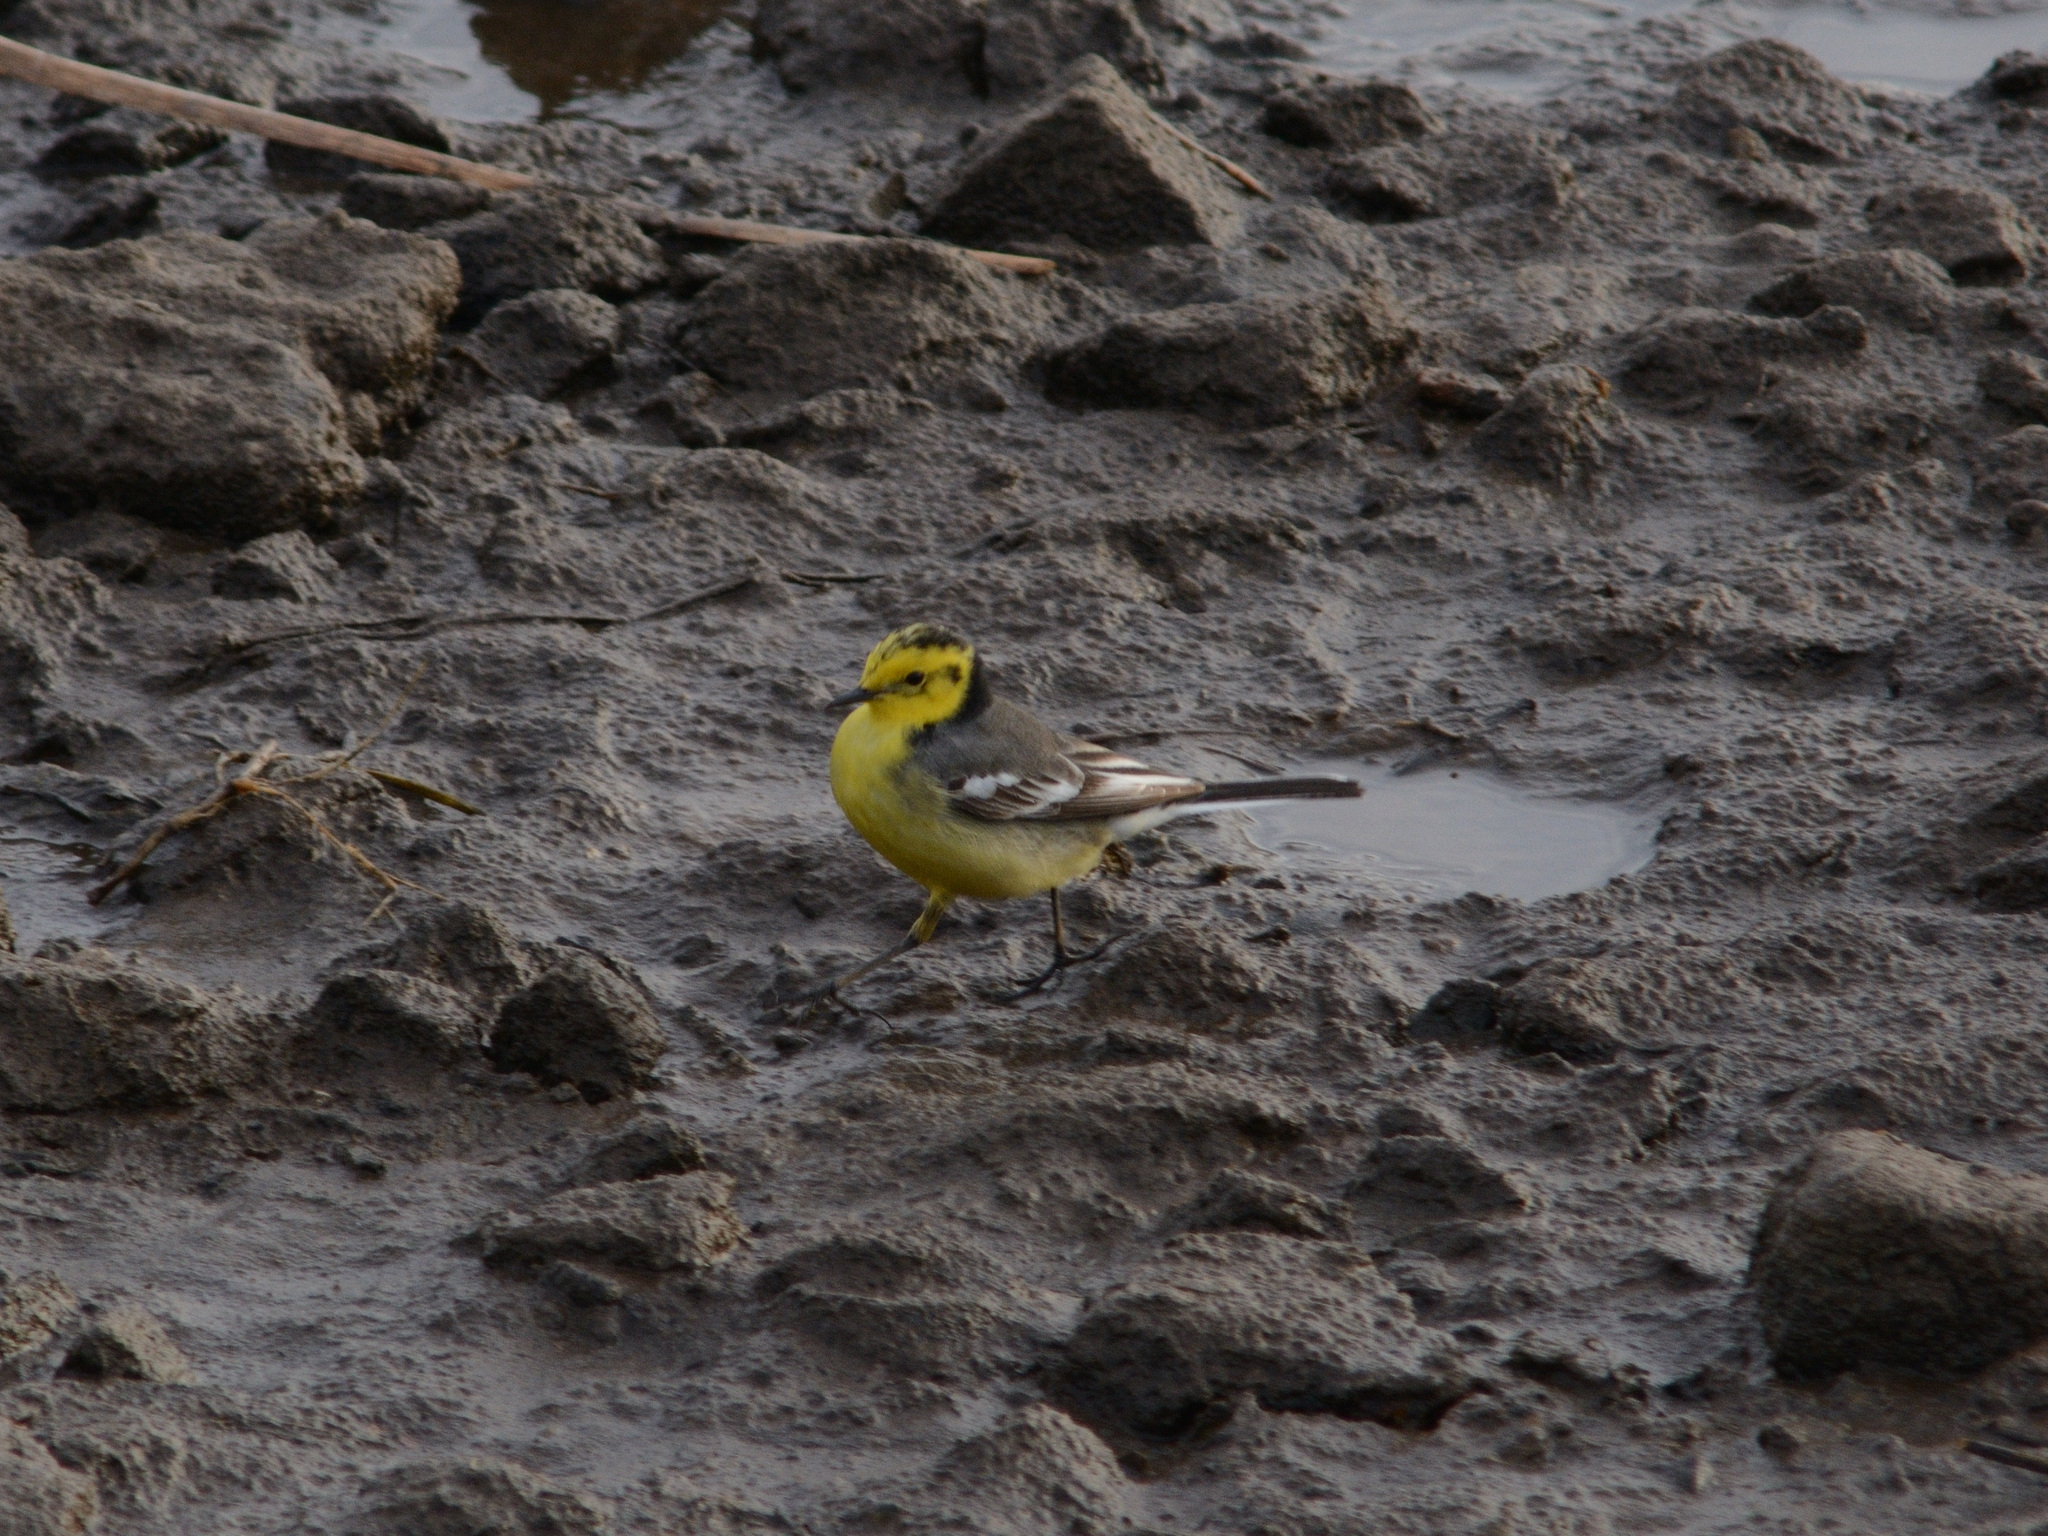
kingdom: Animalia
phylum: Chordata
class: Aves
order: Passeriformes
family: Motacillidae
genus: Motacilla
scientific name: Motacilla citreola
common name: Citrine wagtail
